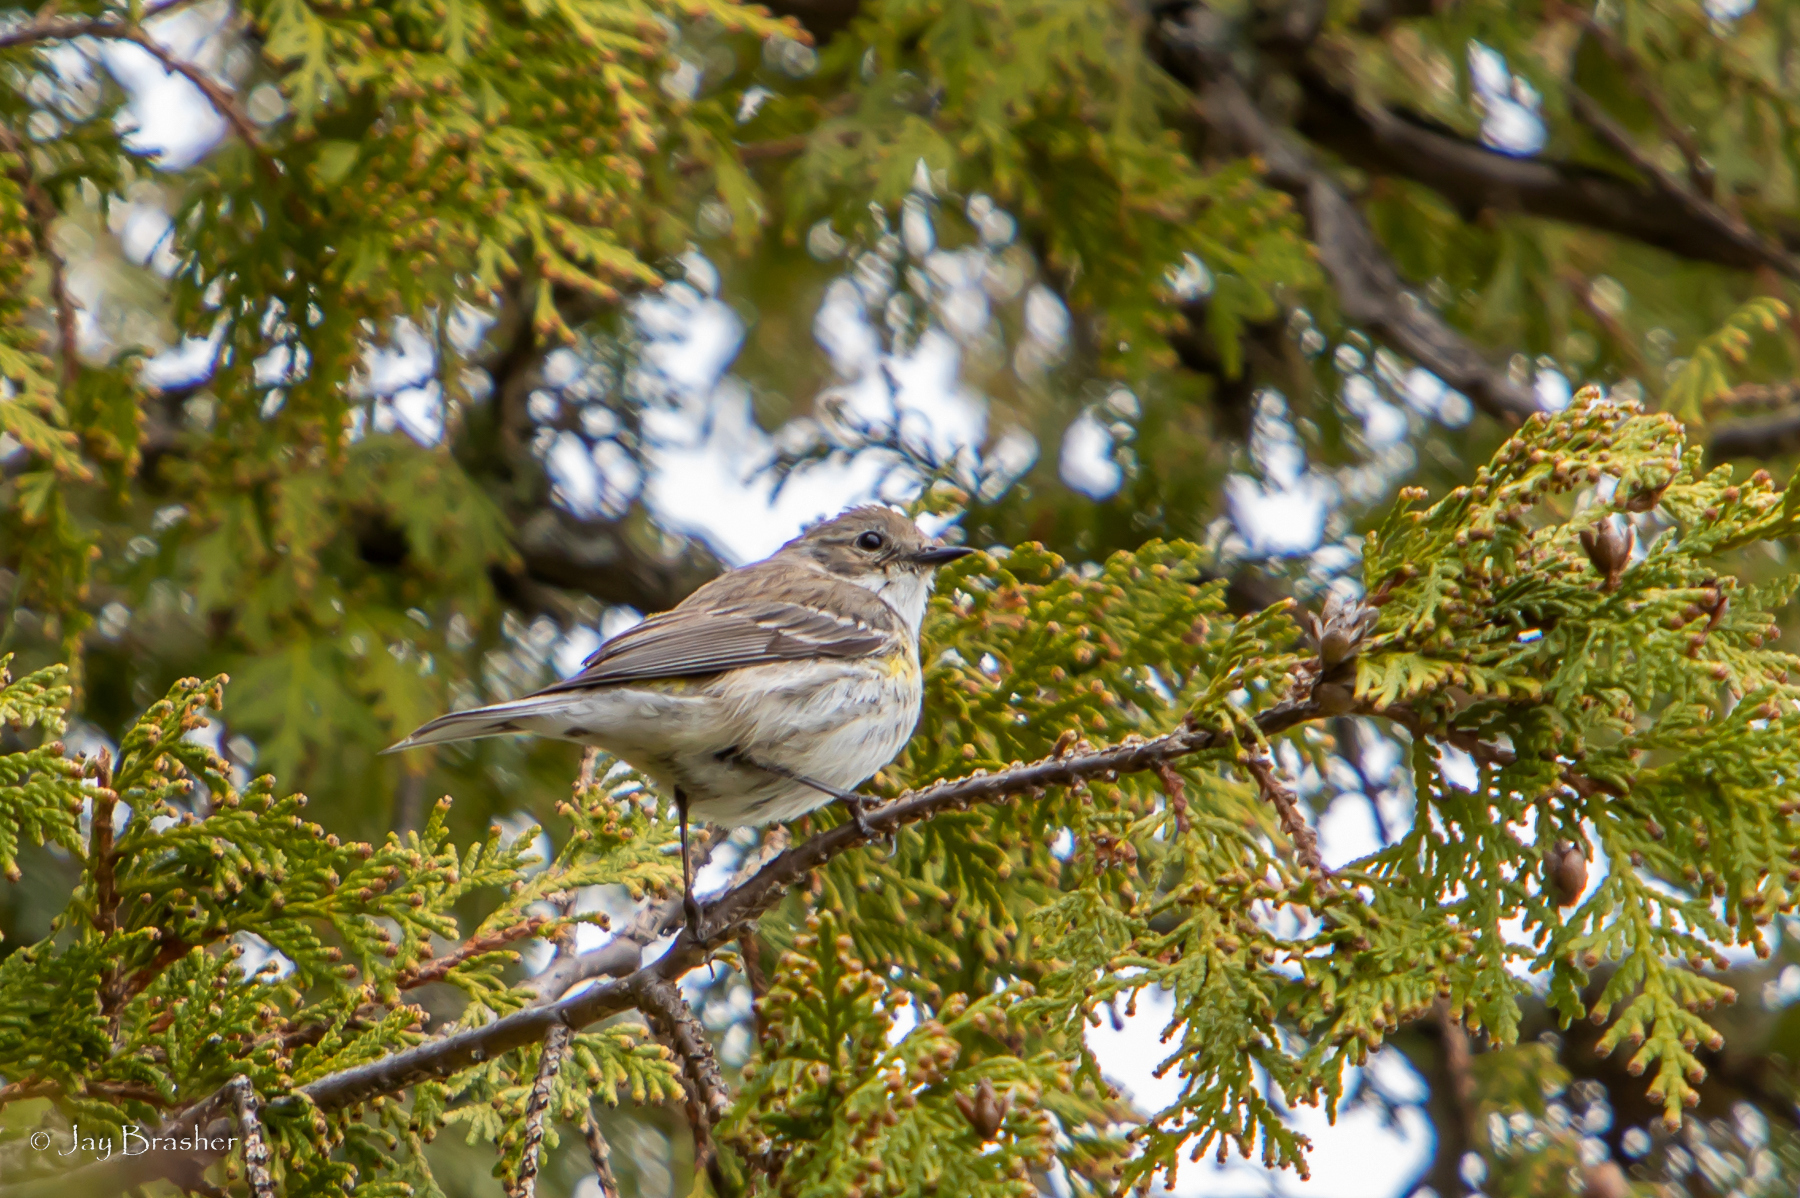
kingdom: Animalia
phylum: Chordata
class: Aves
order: Passeriformes
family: Parulidae
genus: Setophaga
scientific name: Setophaga coronata
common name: Myrtle warbler
